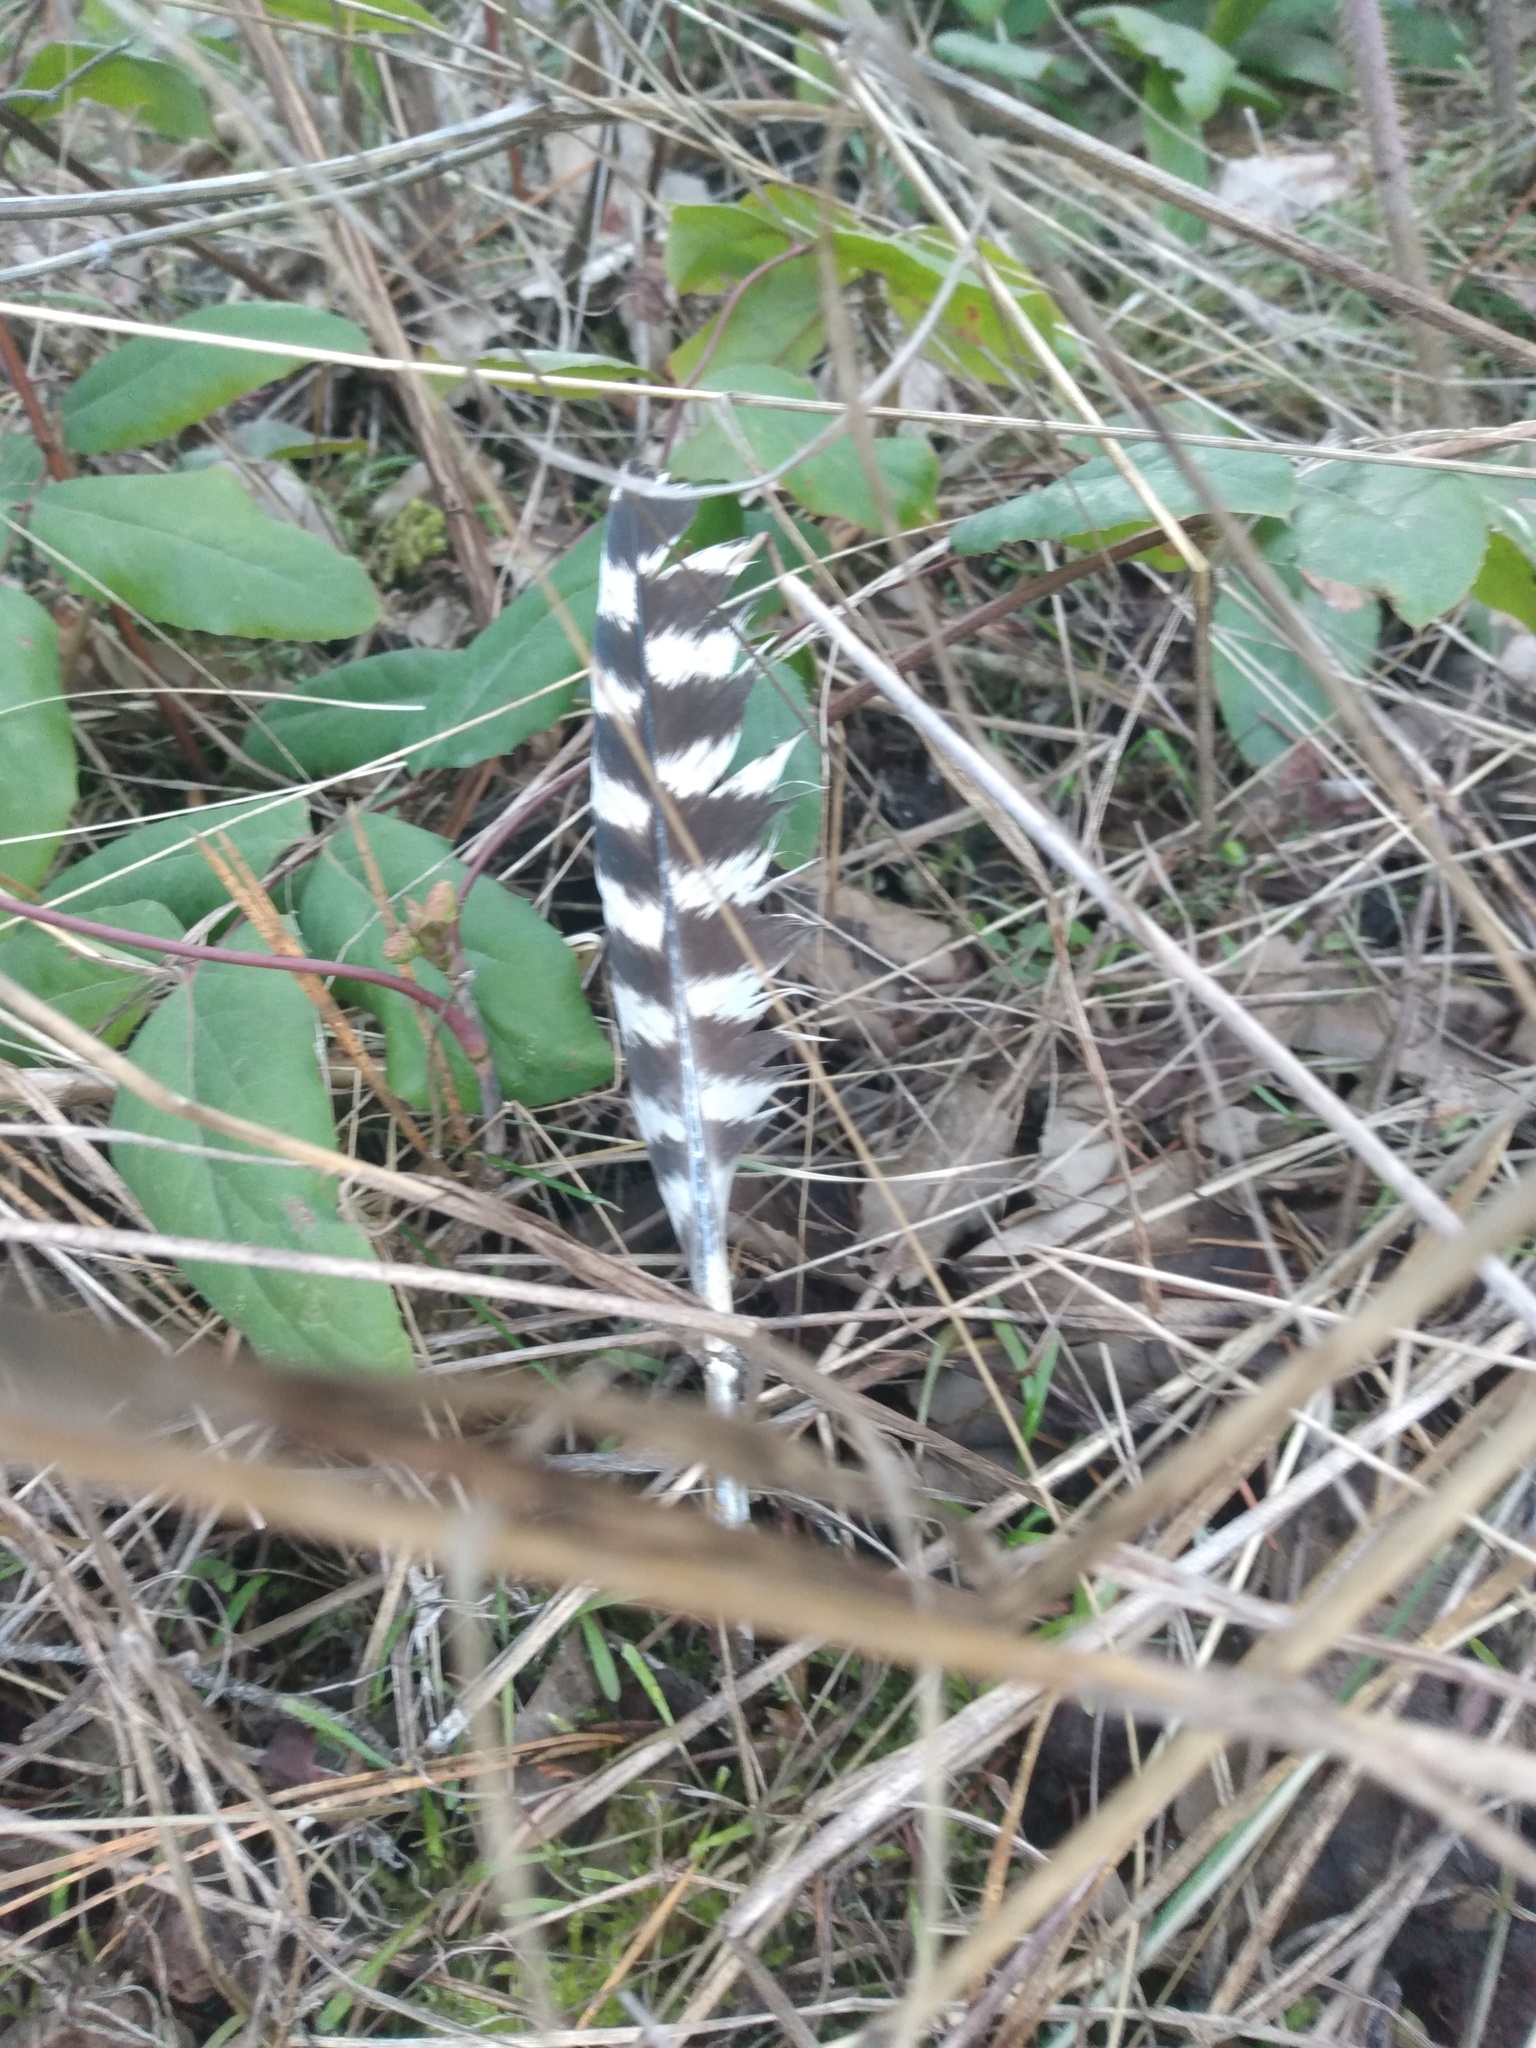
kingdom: Animalia
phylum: Chordata
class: Aves
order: Galliformes
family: Phasianidae
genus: Meleagris
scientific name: Meleagris gallopavo
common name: Wild turkey
